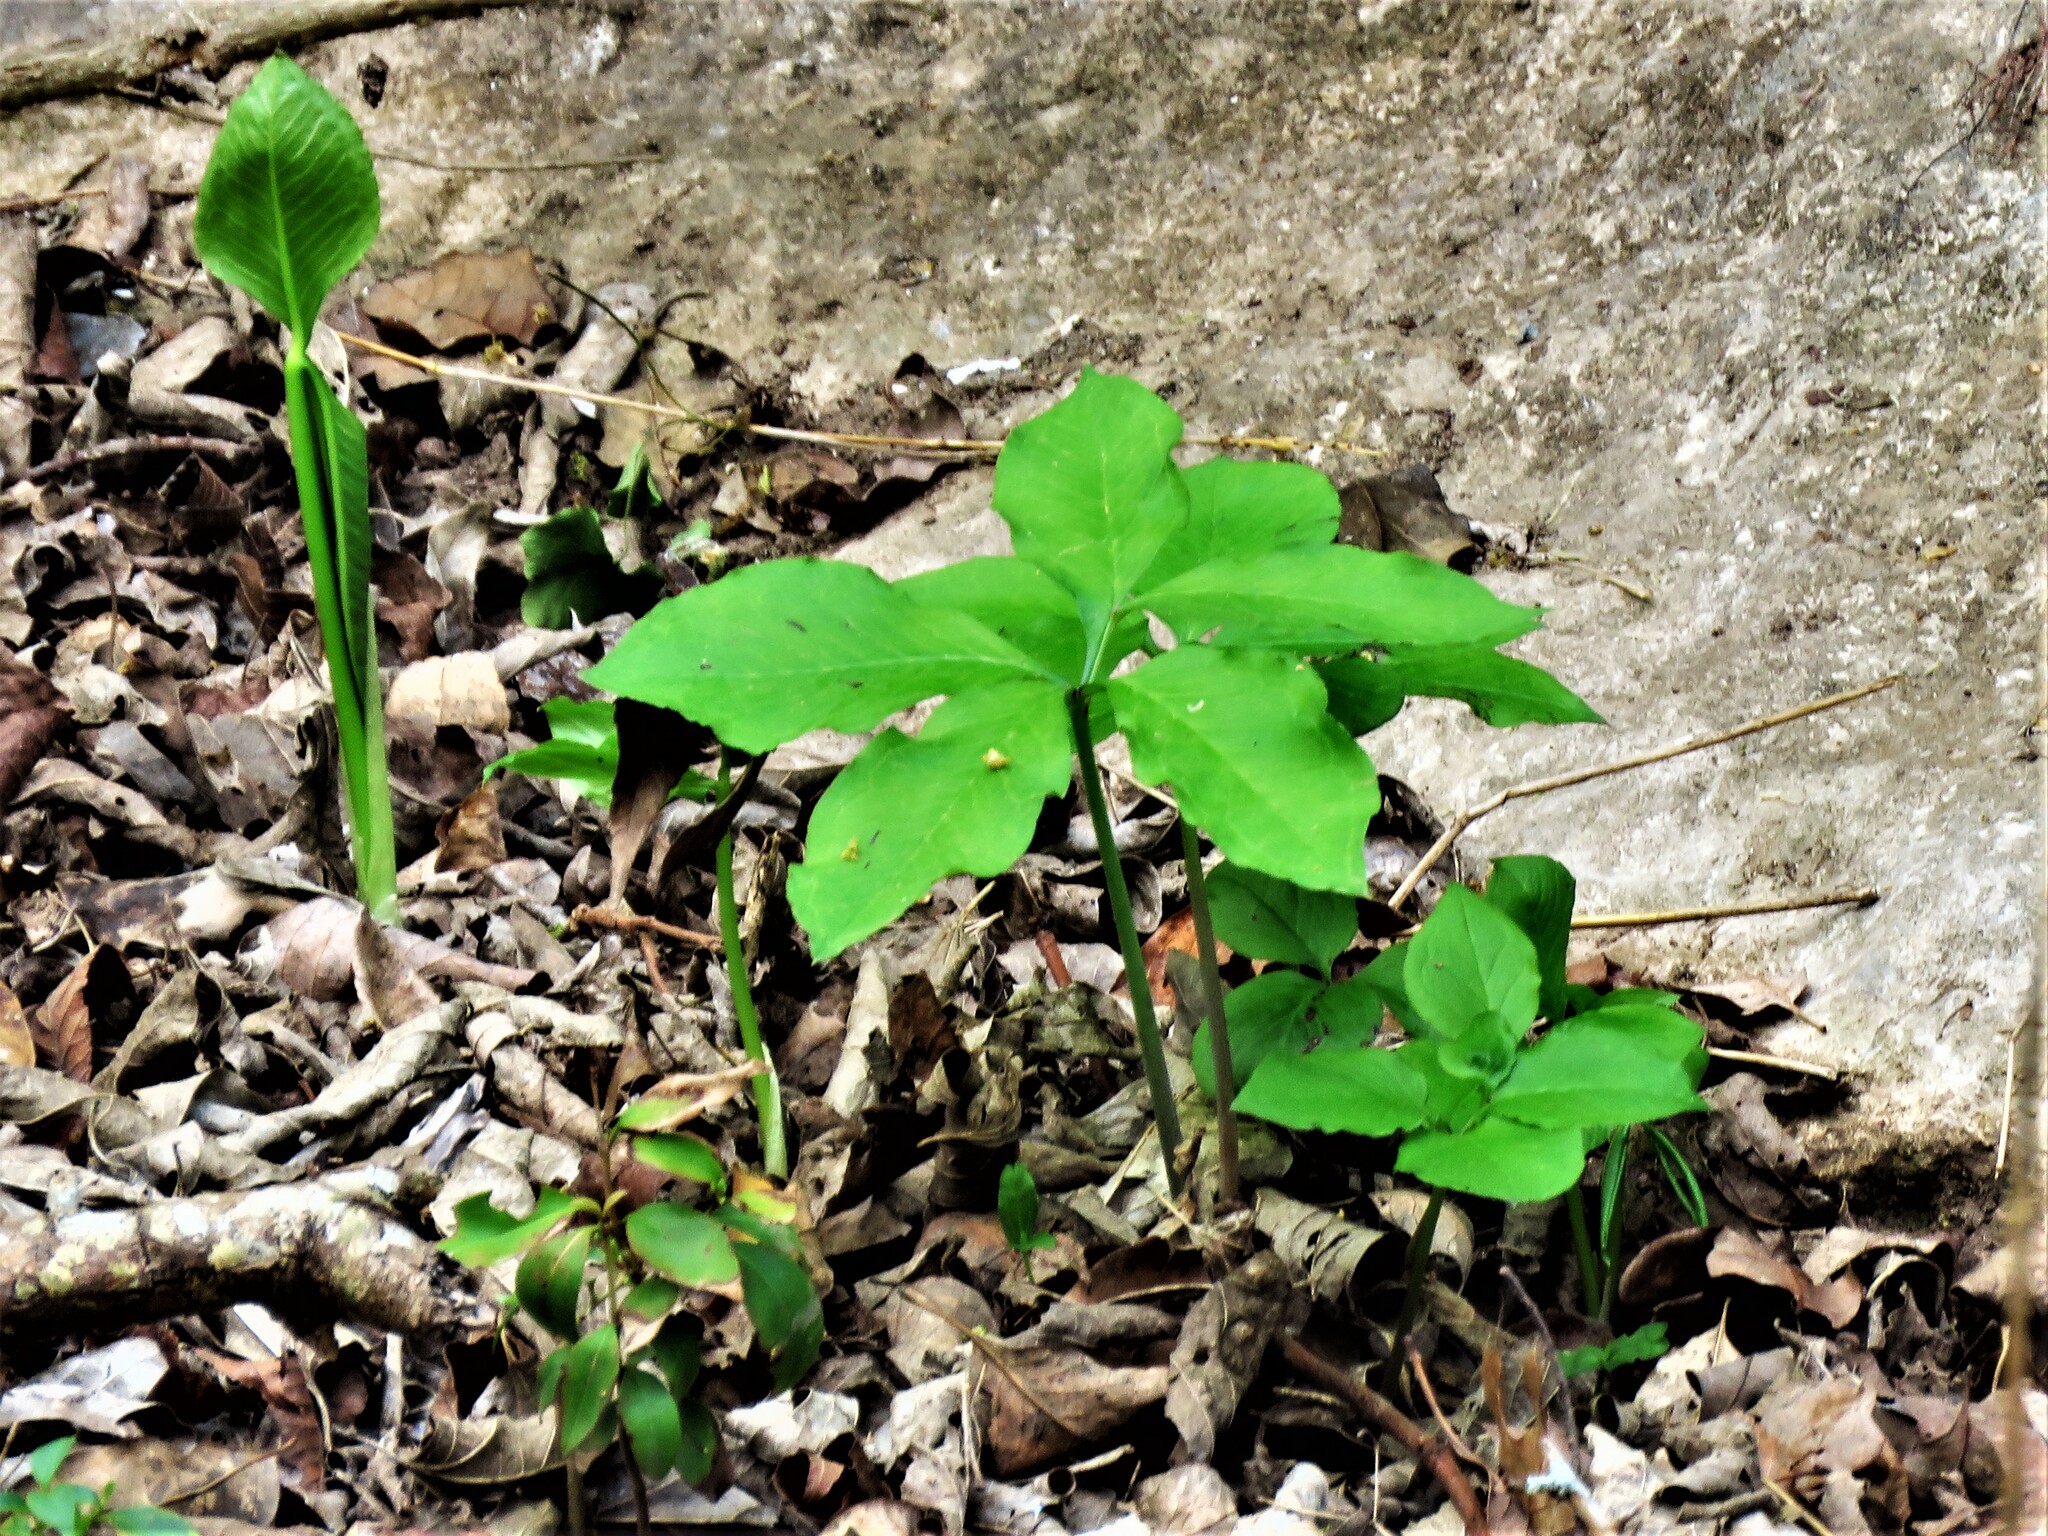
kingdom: Plantae
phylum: Tracheophyta
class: Liliopsida
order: Alismatales
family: Araceae
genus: Arisaema
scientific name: Arisaema dracontium
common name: Dragon-arum
